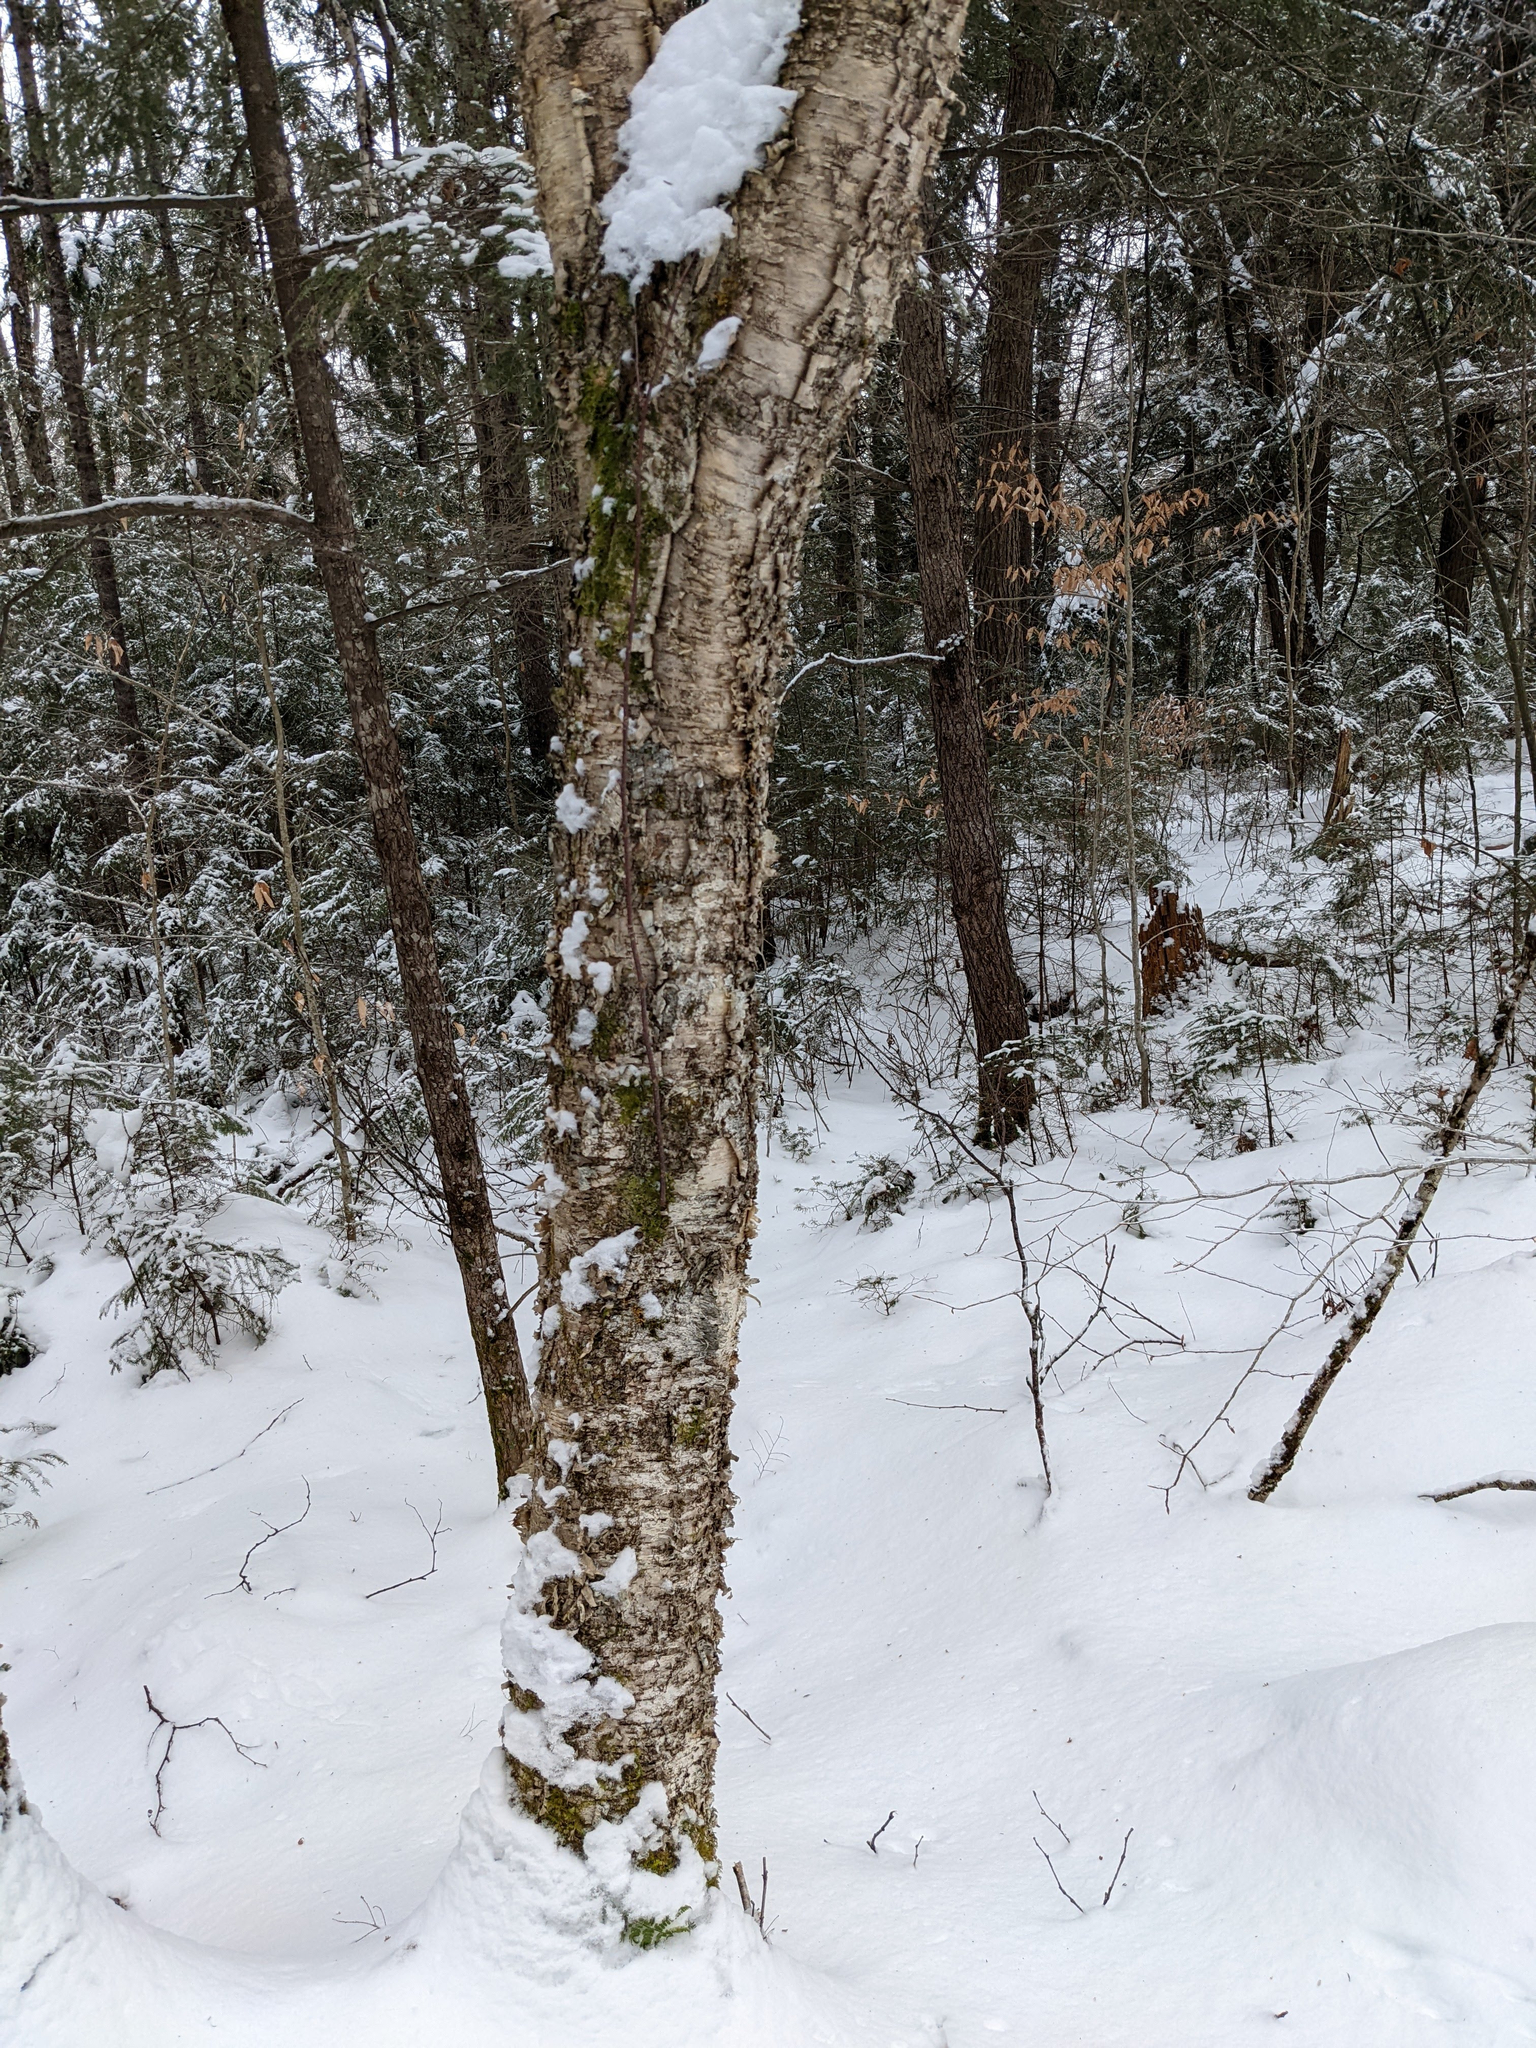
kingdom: Plantae
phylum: Tracheophyta
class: Magnoliopsida
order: Fagales
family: Betulaceae
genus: Betula
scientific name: Betula alleghaniensis
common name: Yellow birch
